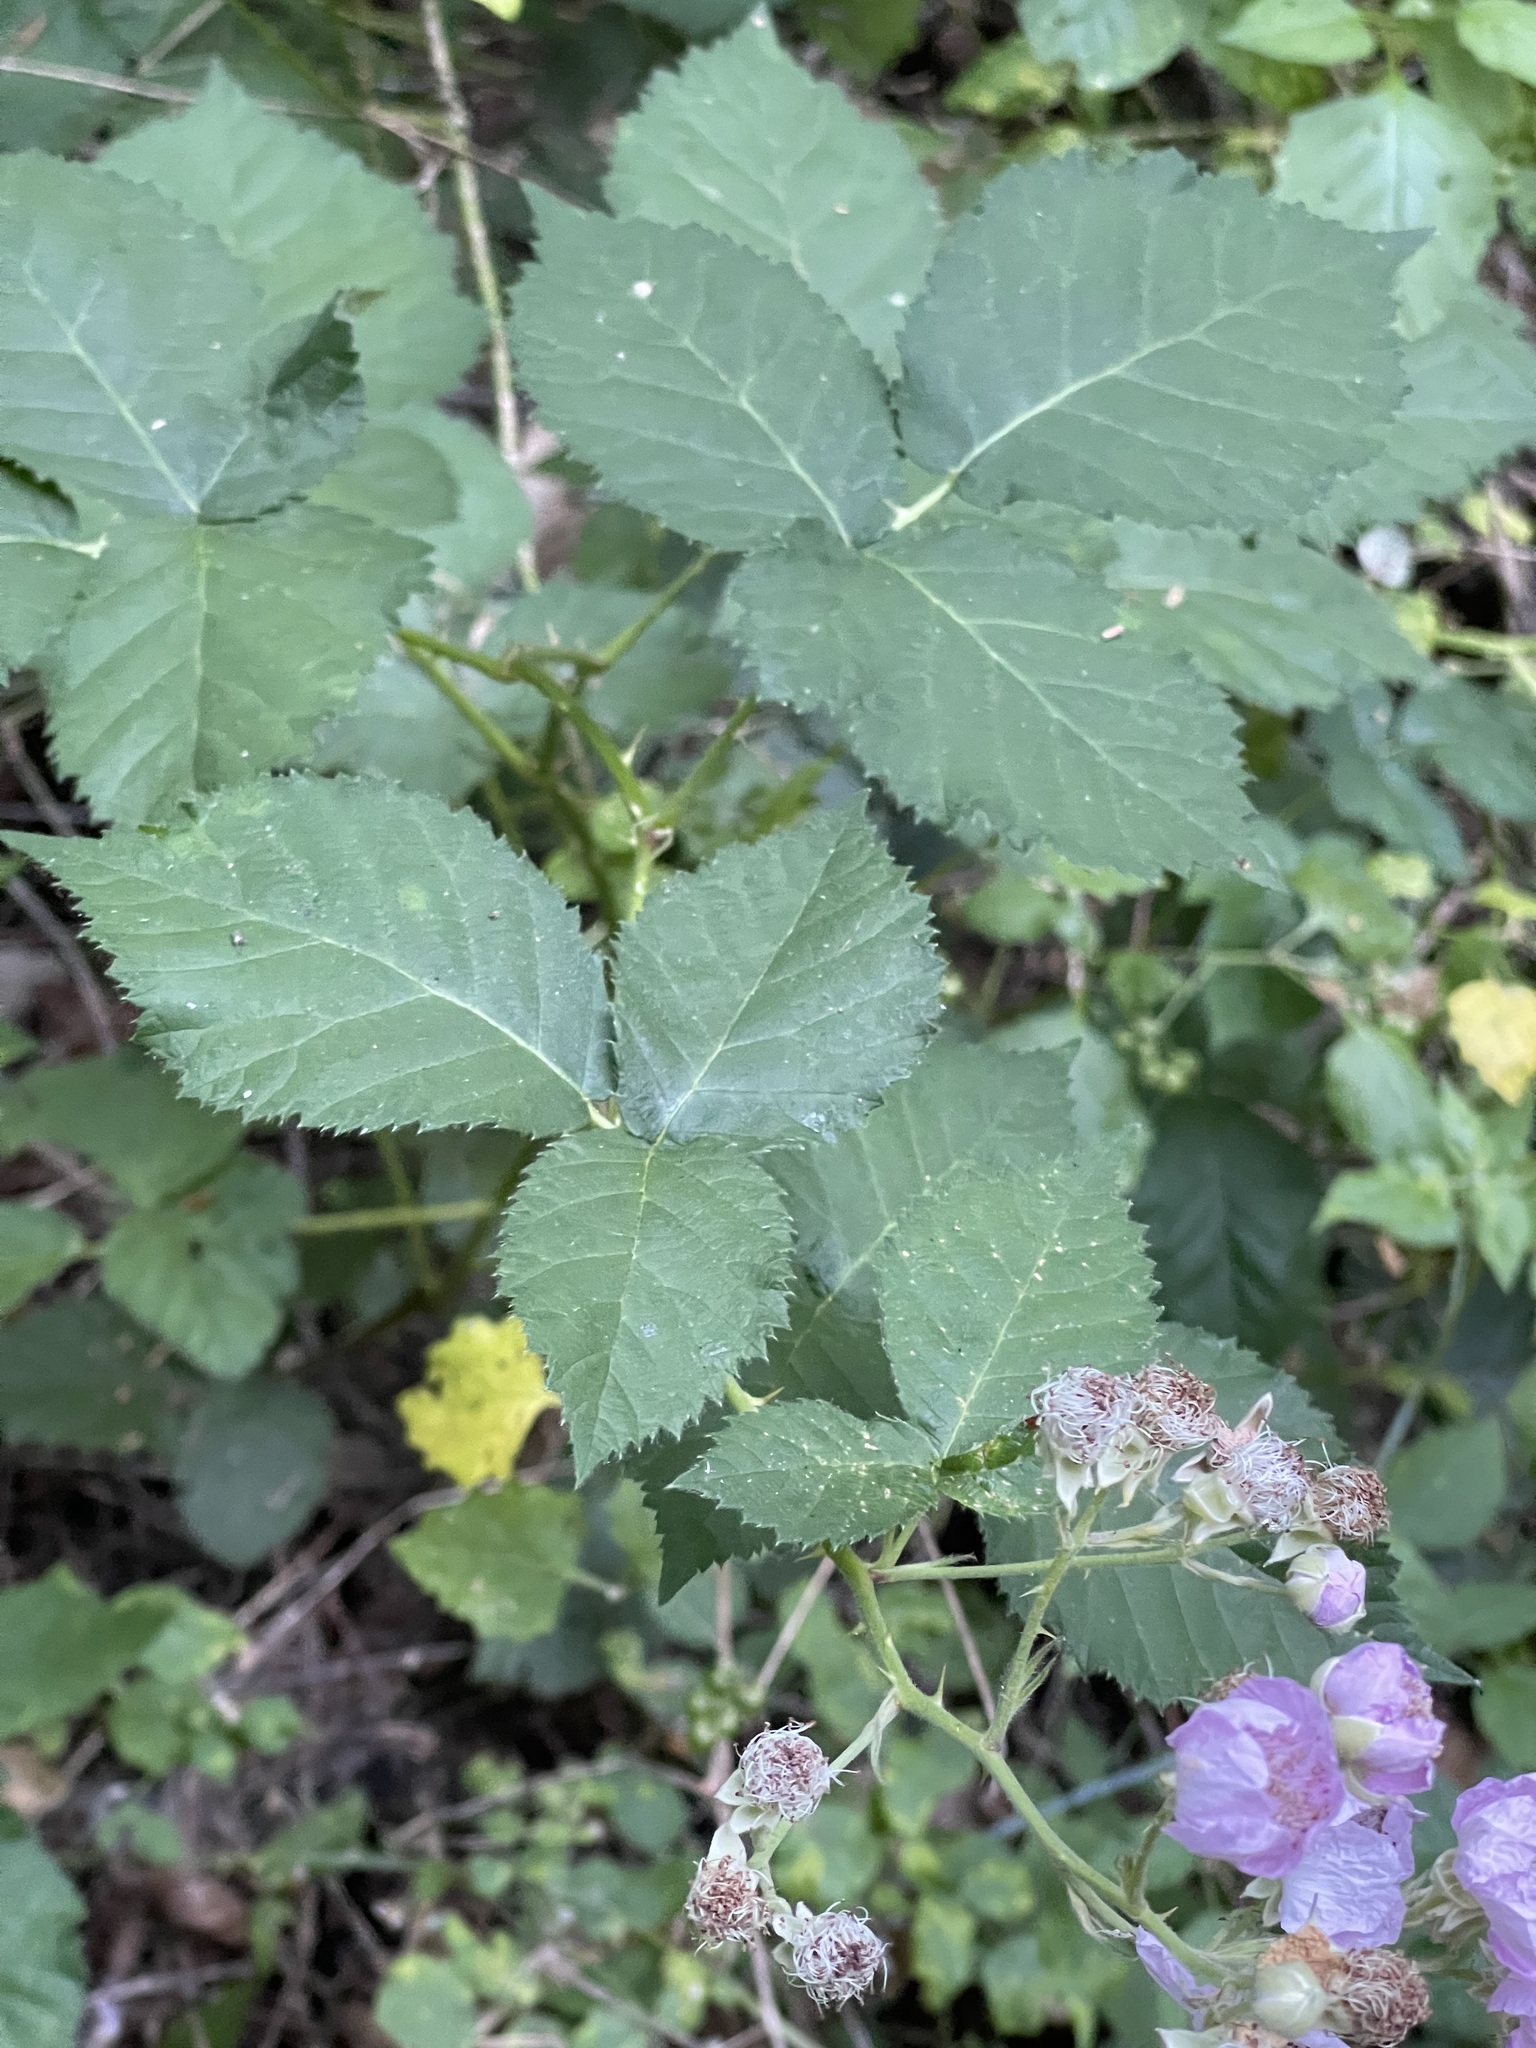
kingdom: Plantae
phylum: Tracheophyta
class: Magnoliopsida
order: Rosales
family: Rosaceae
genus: Rubus
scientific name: Rubus armeniacus
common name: Himalayan blackberry
